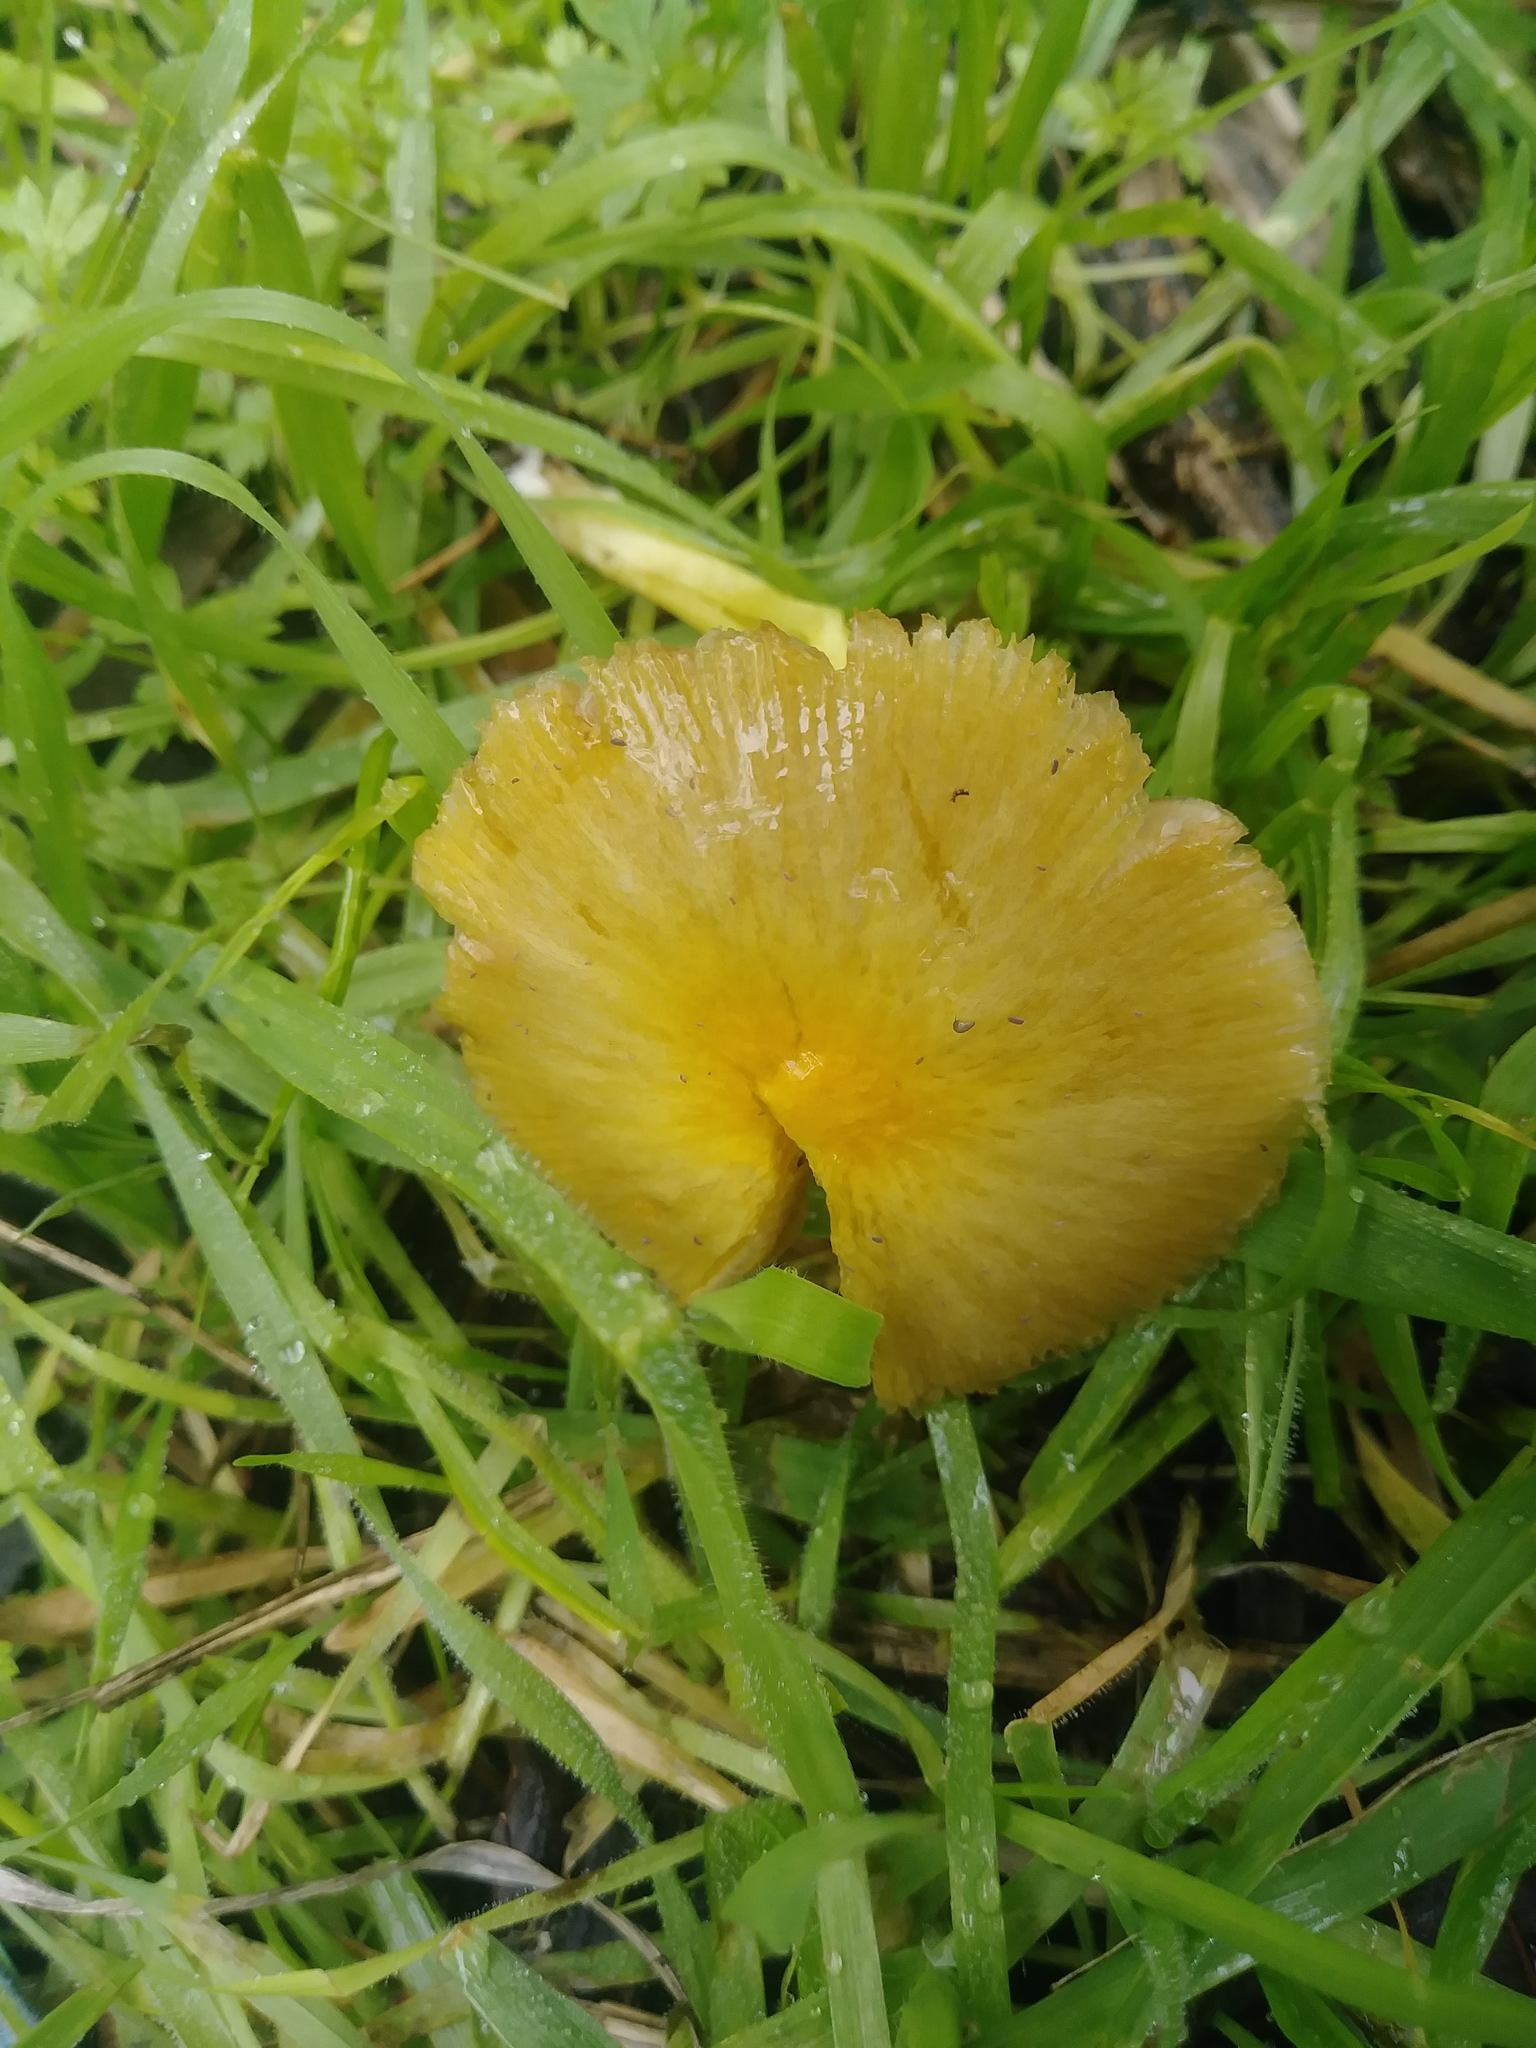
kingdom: Fungi
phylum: Basidiomycota
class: Agaricomycetes
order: Agaricales
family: Bolbitiaceae
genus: Bolbitius
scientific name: Bolbitius titubans
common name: Yellow fieldcap
